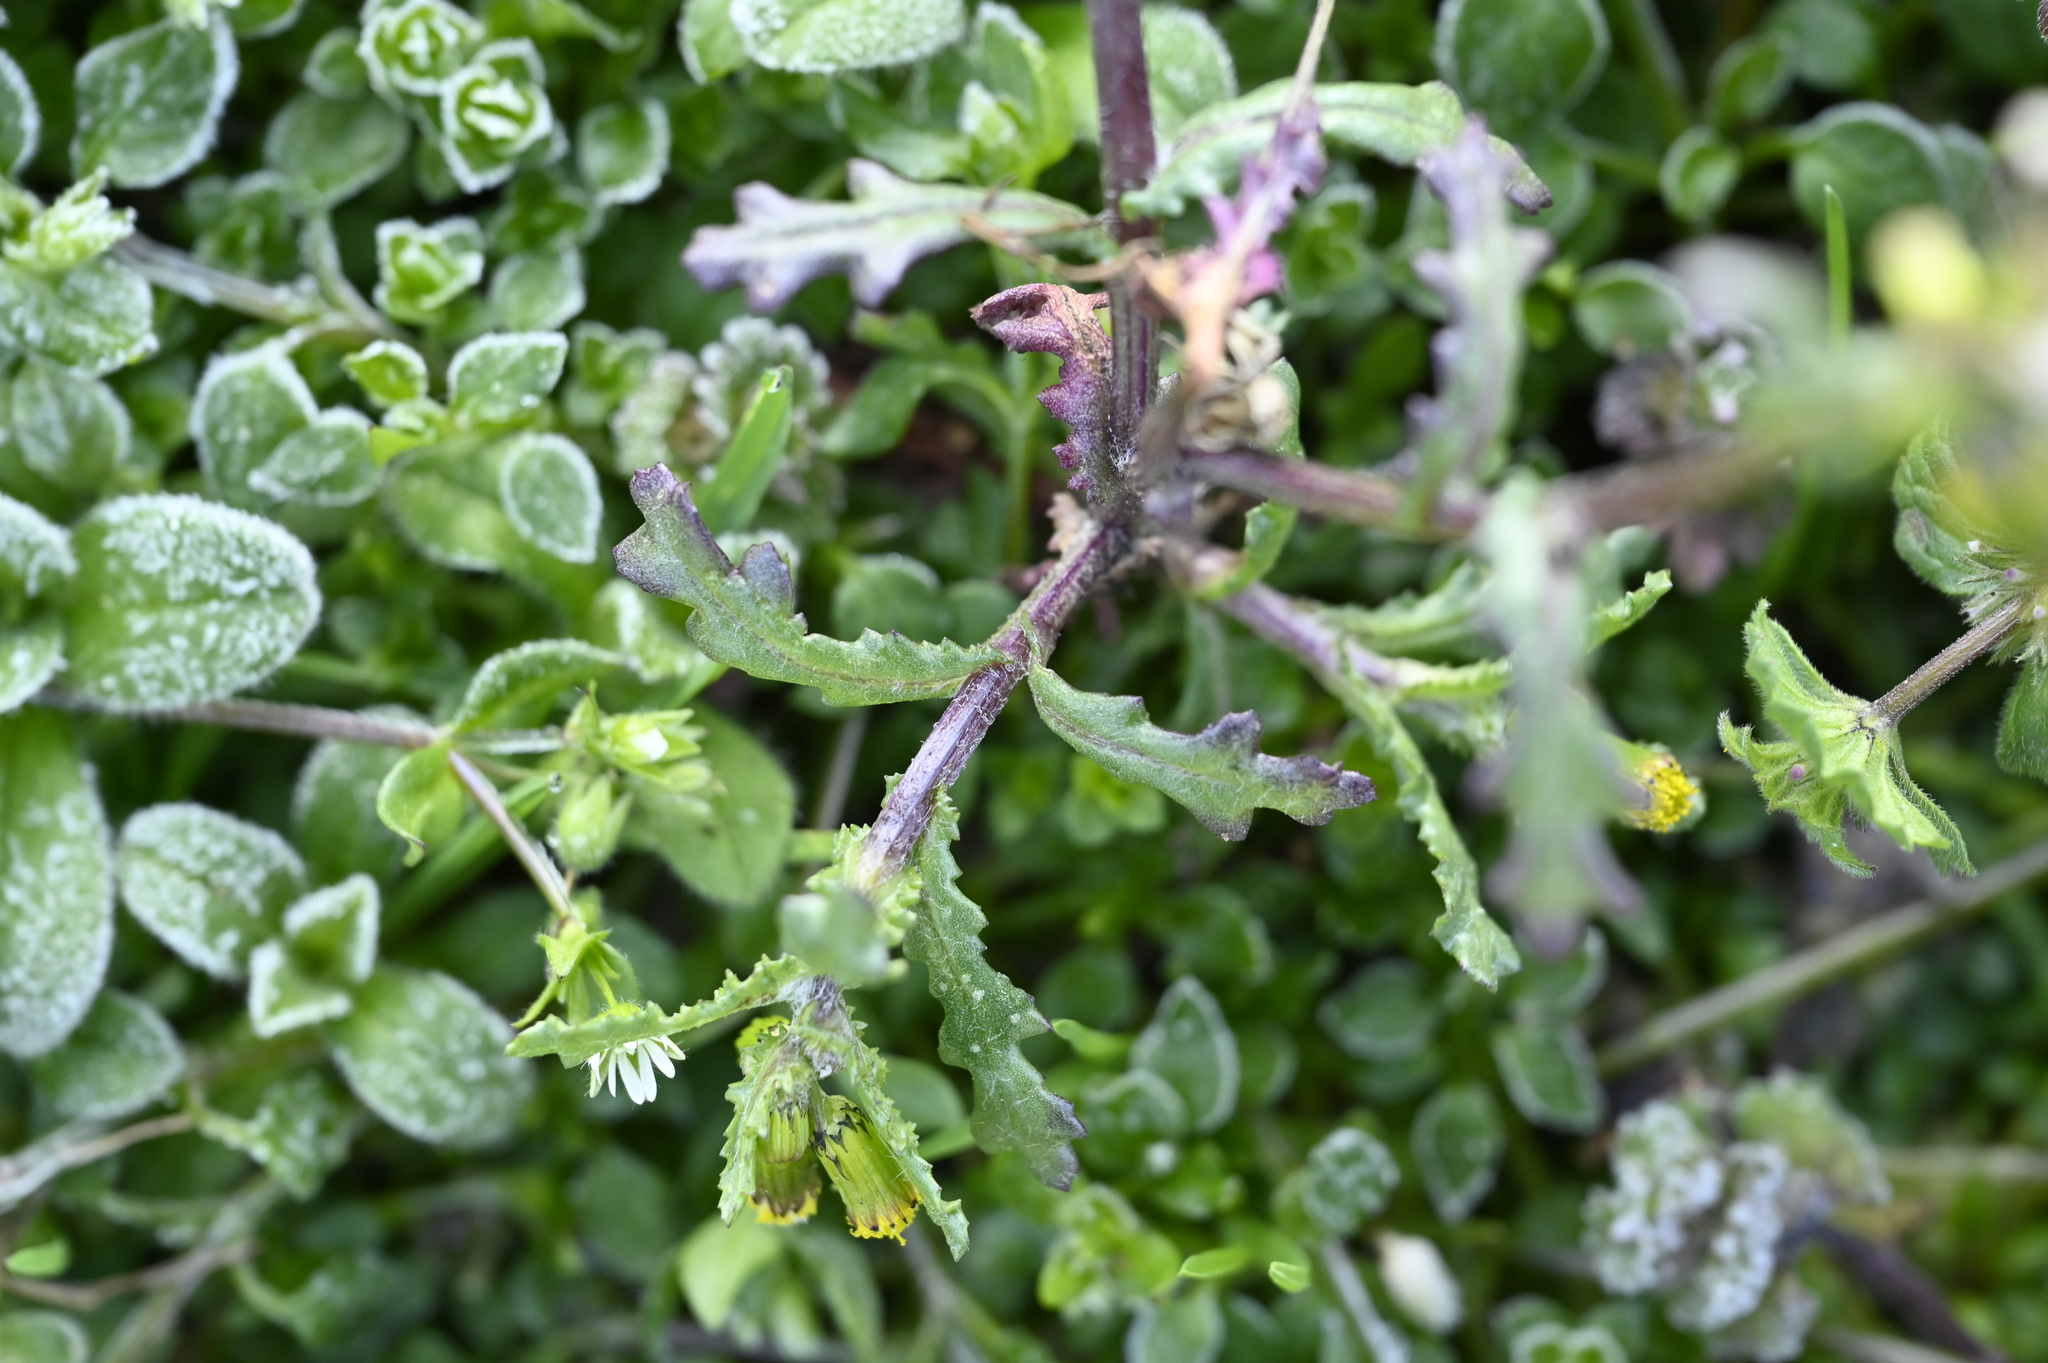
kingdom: Plantae
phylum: Tracheophyta
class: Magnoliopsida
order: Asterales
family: Asteraceae
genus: Senecio
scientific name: Senecio vulgaris
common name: Old-man-in-the-spring
